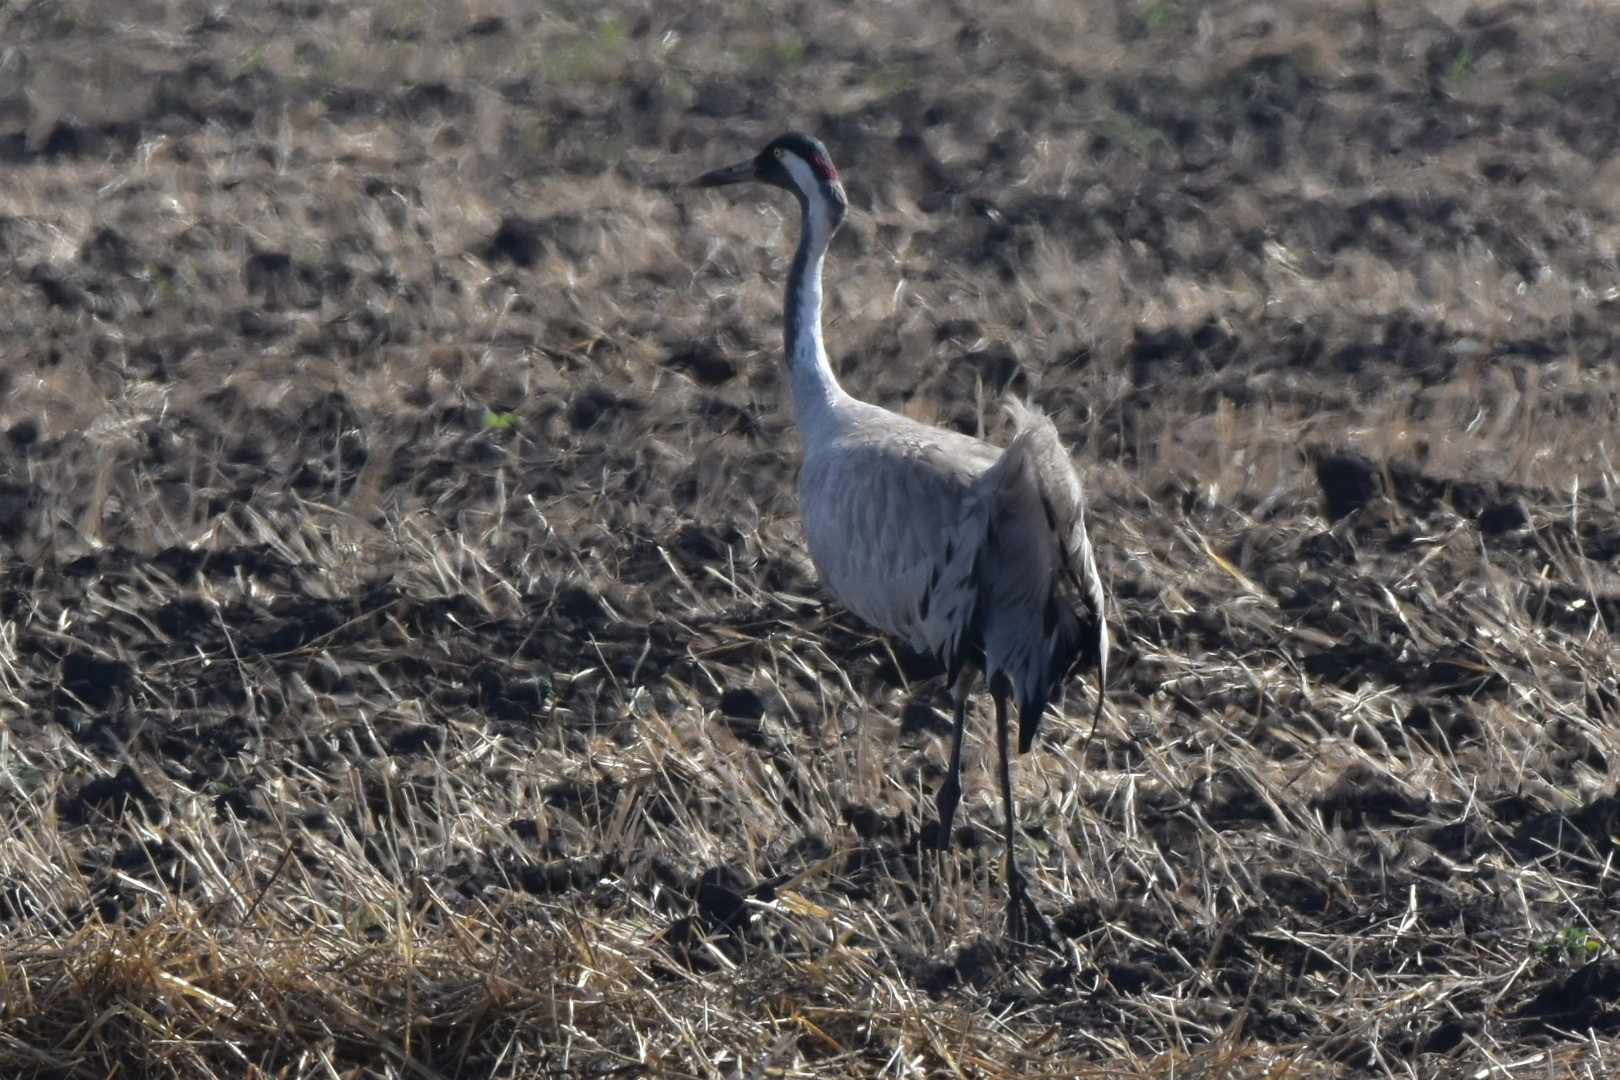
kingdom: Animalia
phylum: Chordata
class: Aves
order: Gruiformes
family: Gruidae
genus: Grus
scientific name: Grus grus
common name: Common crane
